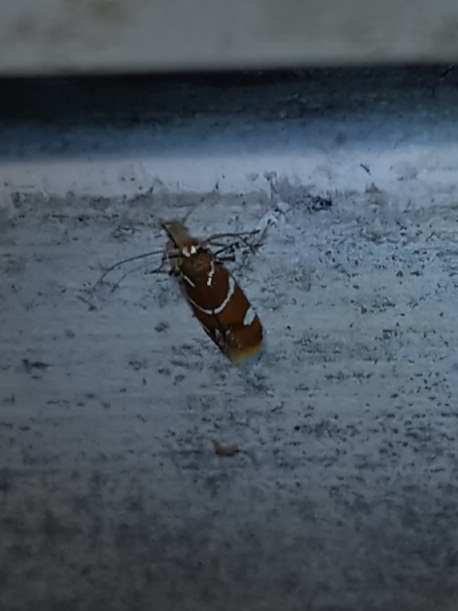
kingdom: Animalia
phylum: Arthropoda
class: Insecta
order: Lepidoptera
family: Oecophoridae
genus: Promalactis
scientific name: Promalactis suzukiella
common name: Moth
